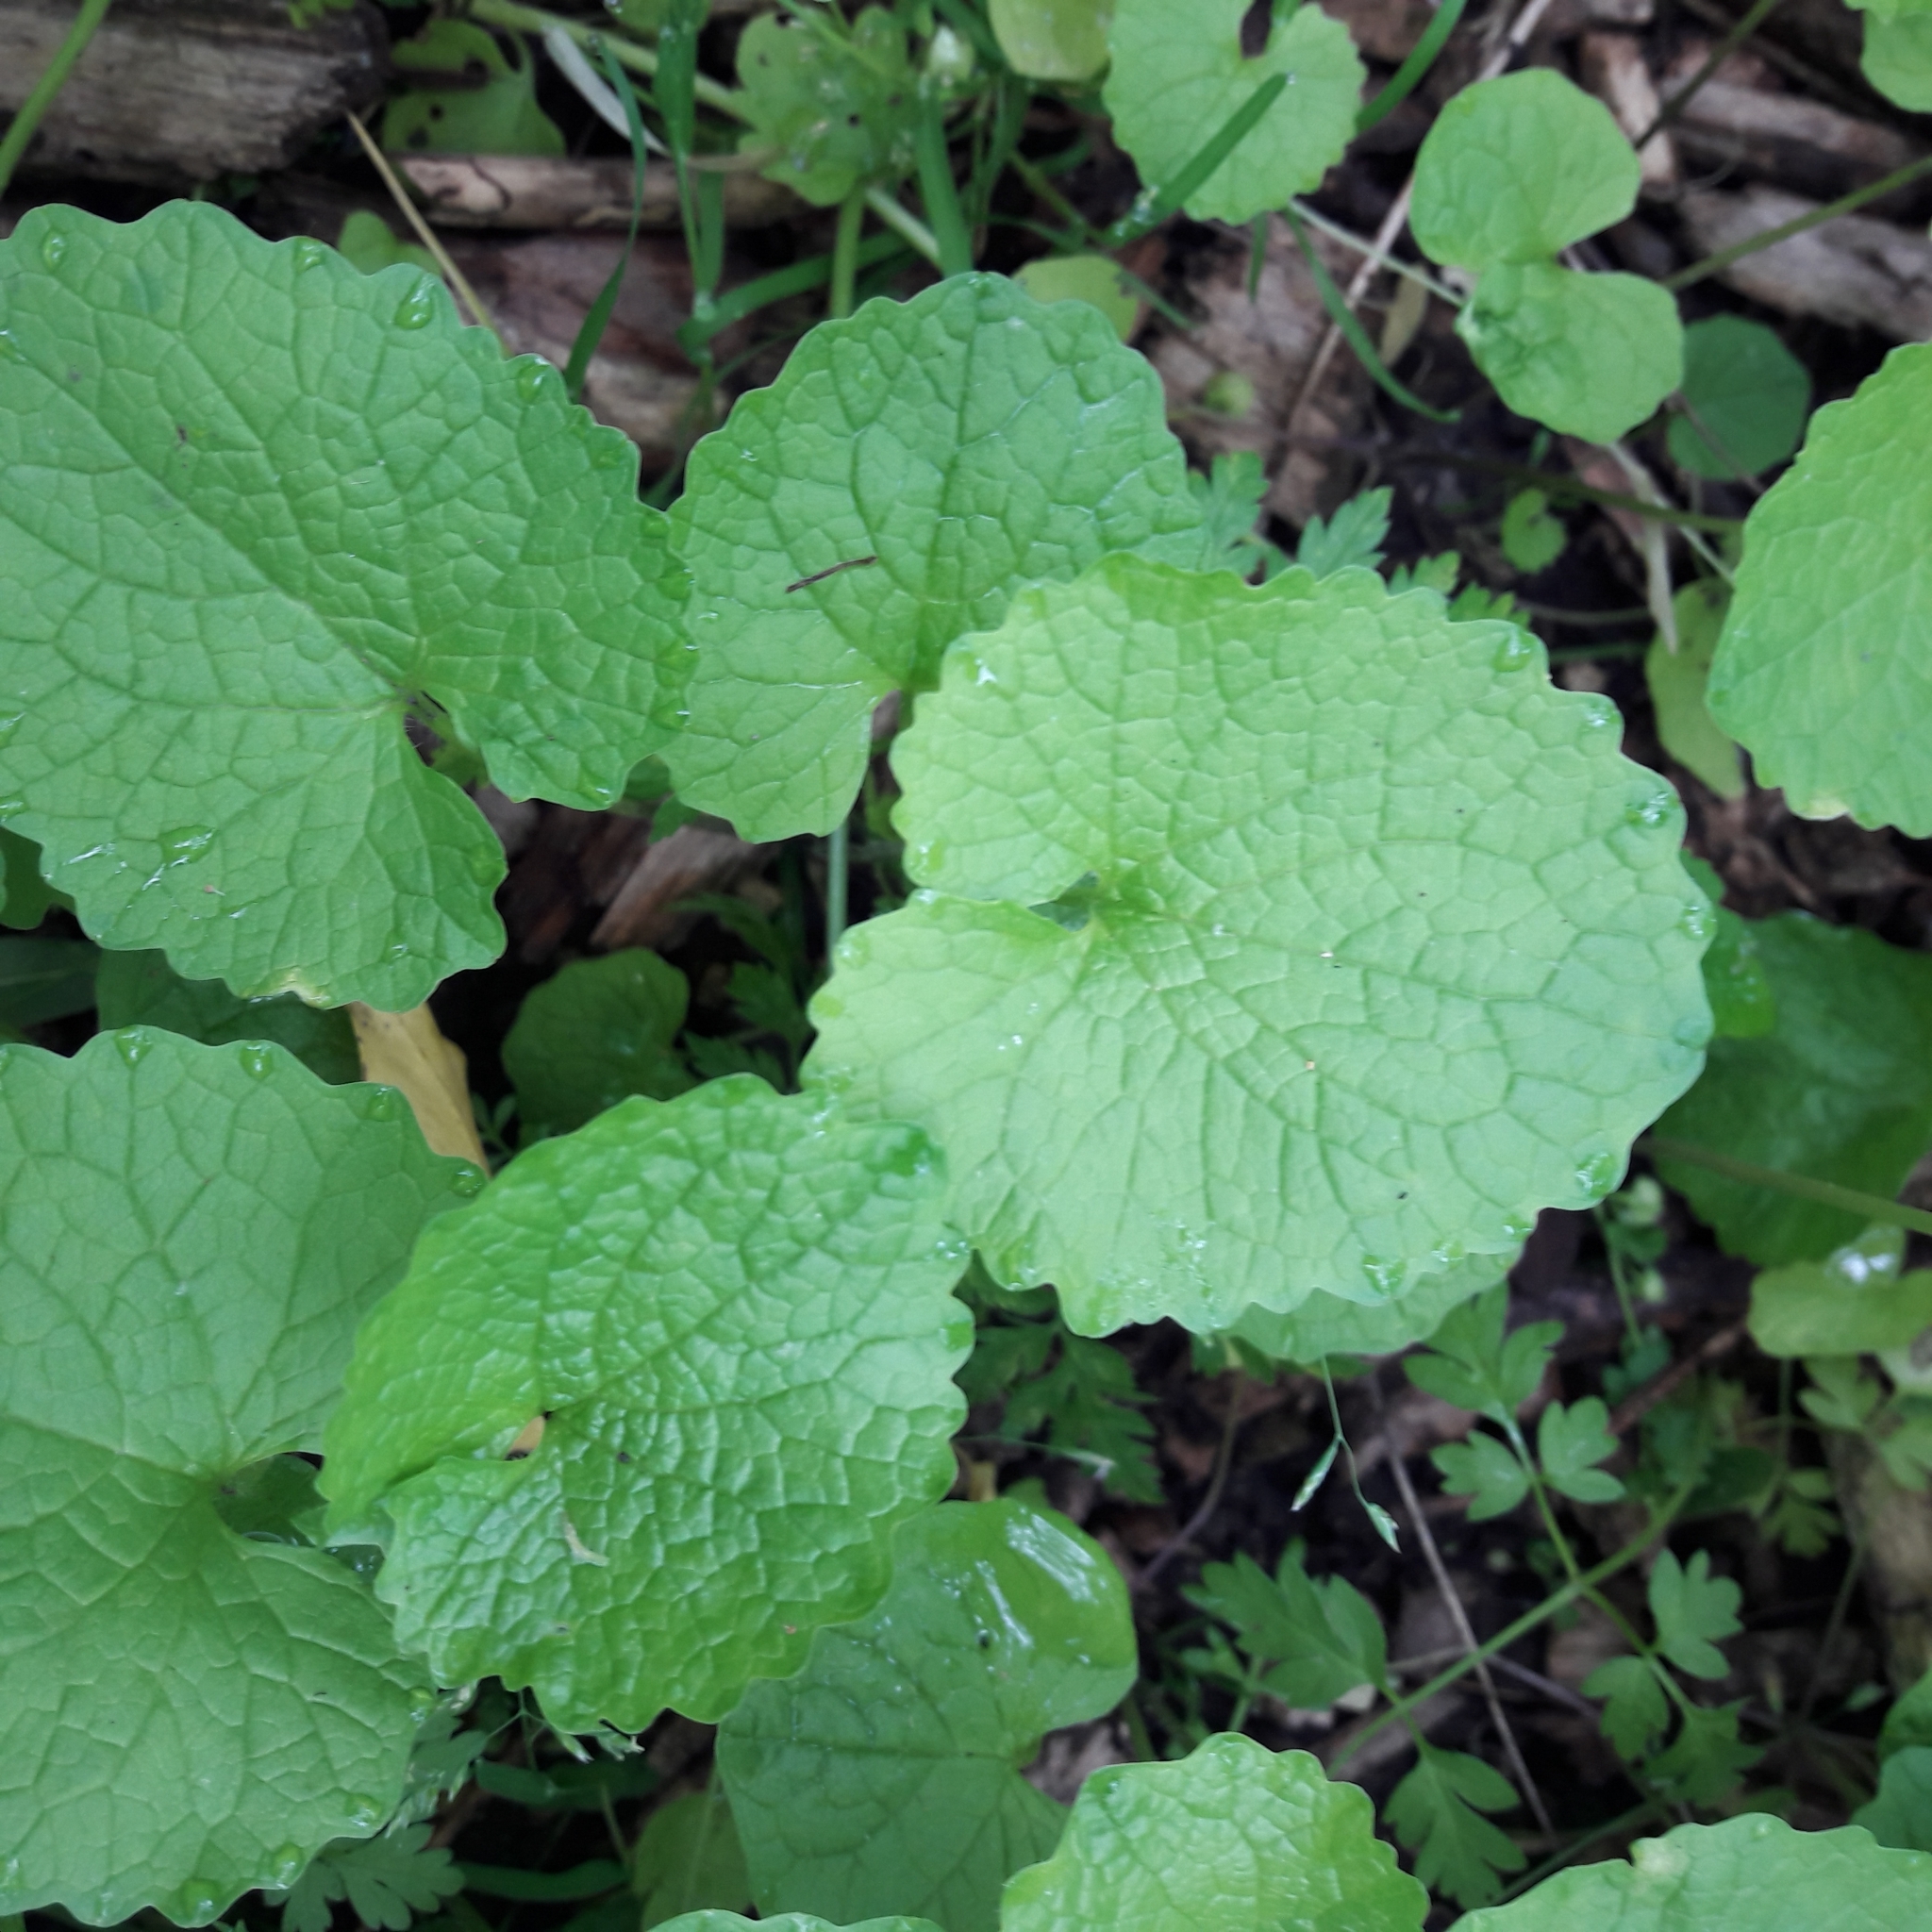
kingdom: Plantae
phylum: Tracheophyta
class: Magnoliopsida
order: Brassicales
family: Brassicaceae
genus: Alliaria
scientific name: Alliaria petiolata
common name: Garlic mustard
